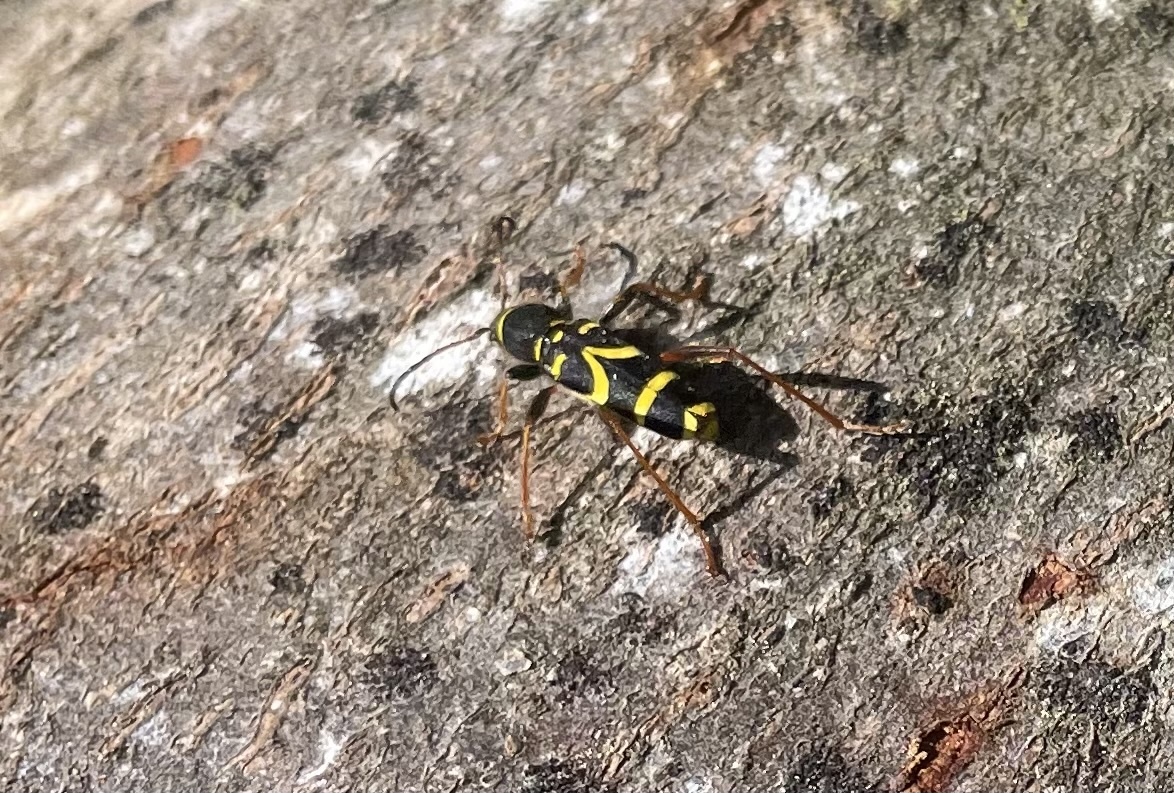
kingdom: Animalia
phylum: Arthropoda
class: Insecta
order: Coleoptera
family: Cerambycidae
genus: Clytus
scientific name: Clytus arietis
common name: Wasp beetle
